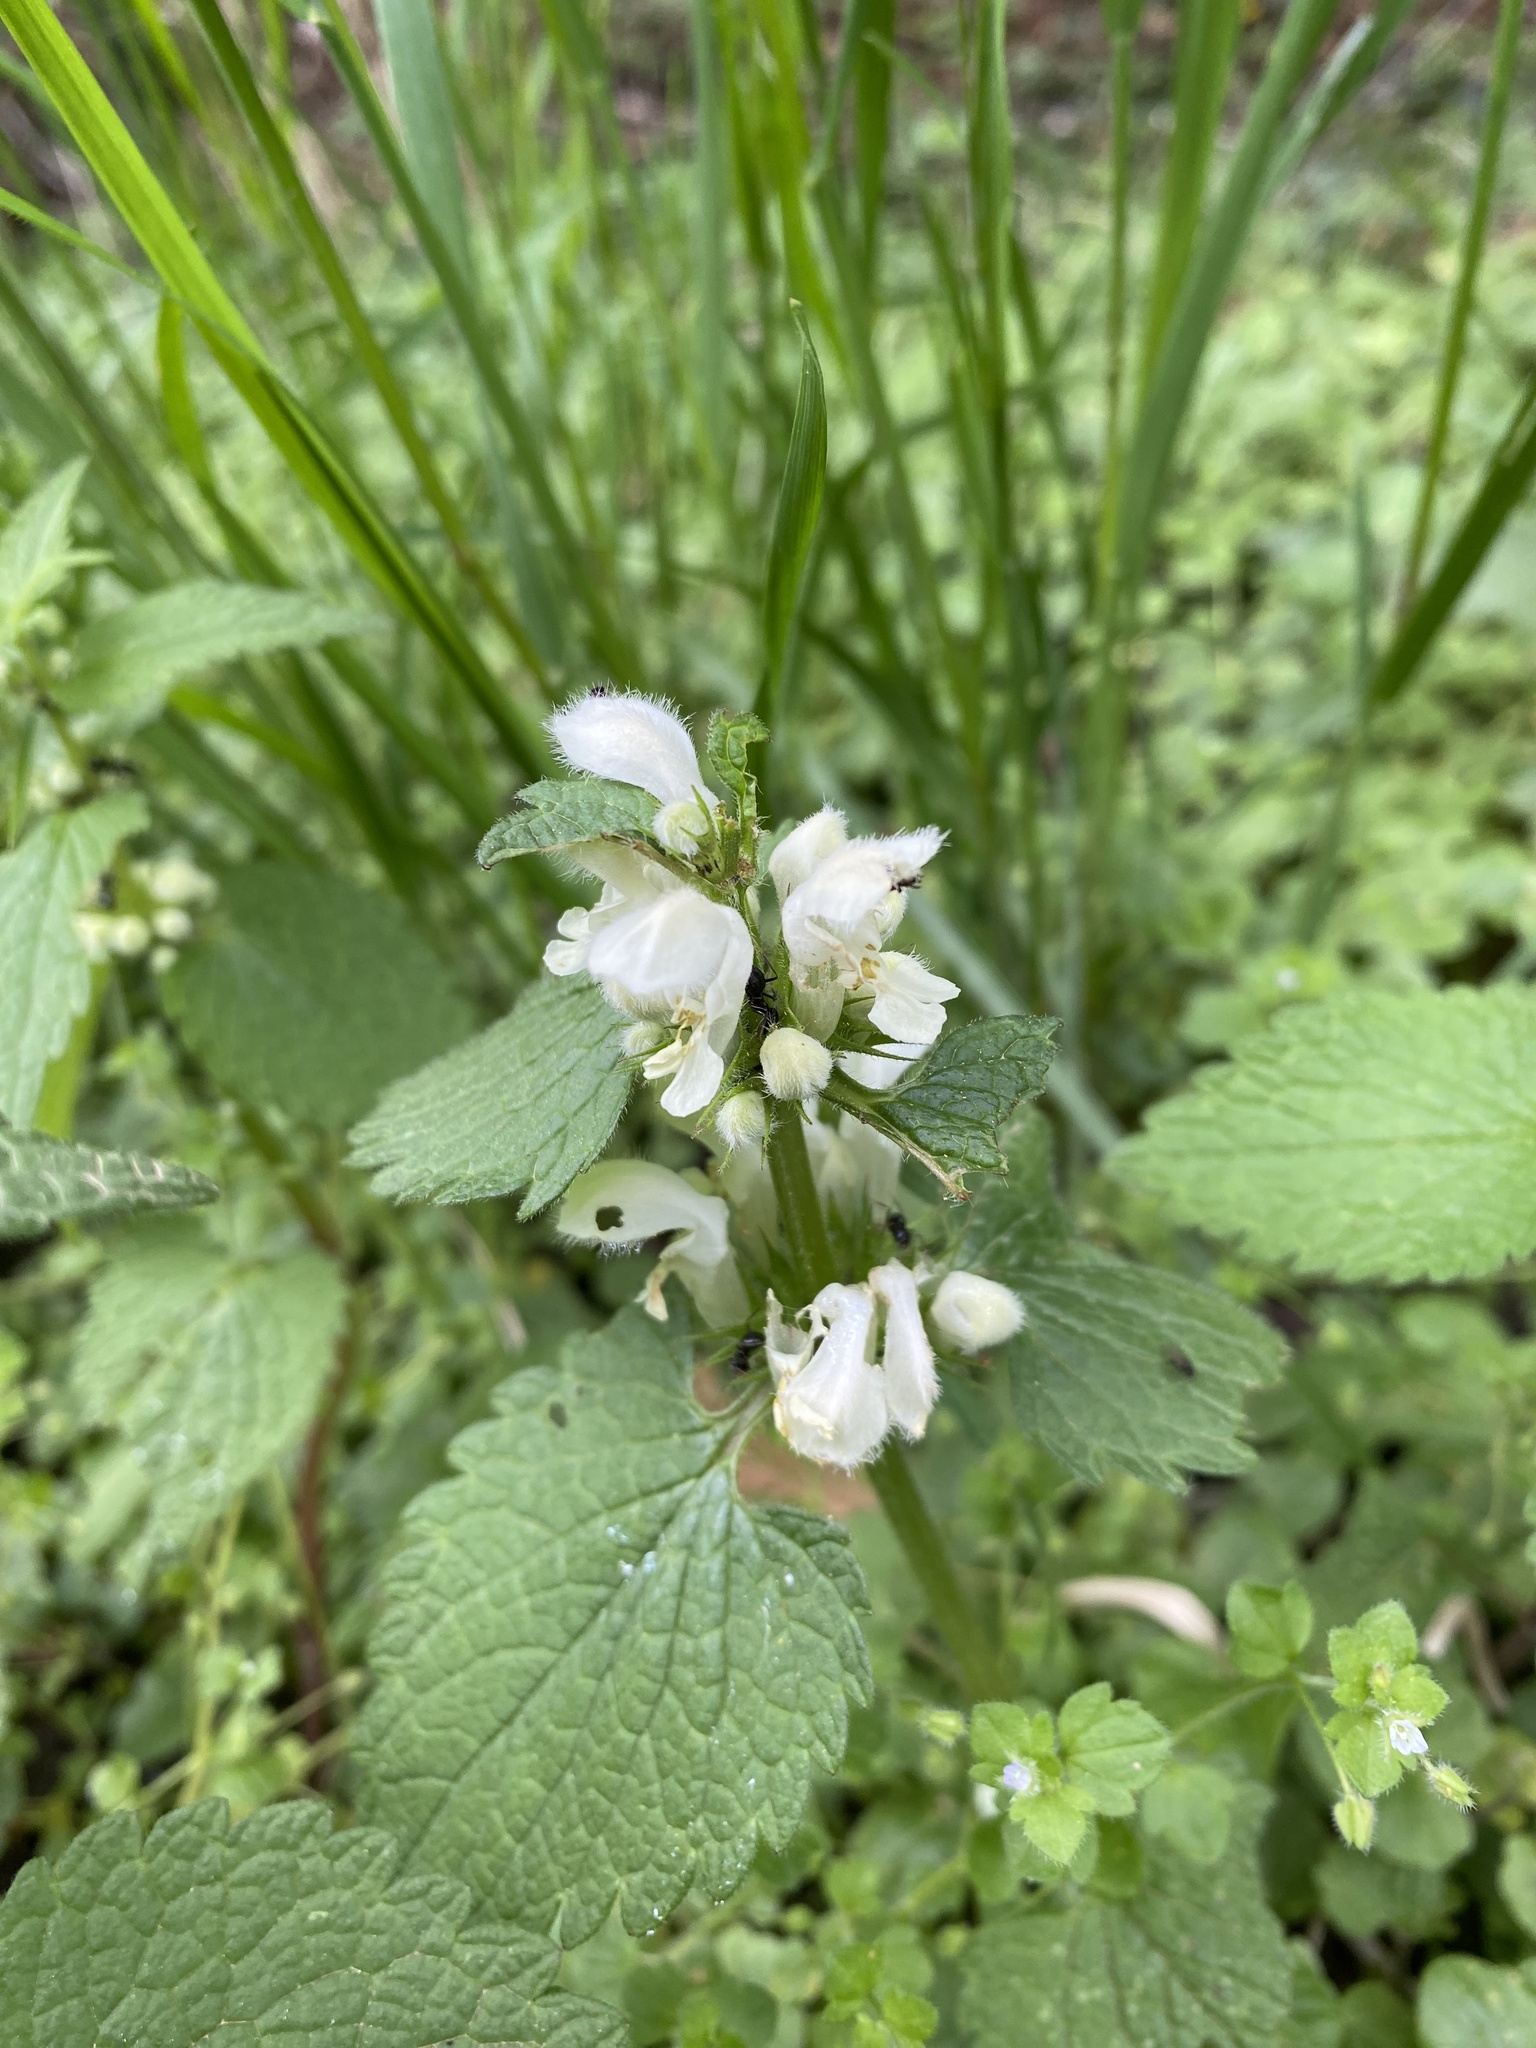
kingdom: Plantae
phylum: Tracheophyta
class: Magnoliopsida
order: Lamiales
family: Lamiaceae
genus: Lamium
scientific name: Lamium album
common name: White dead-nettle
